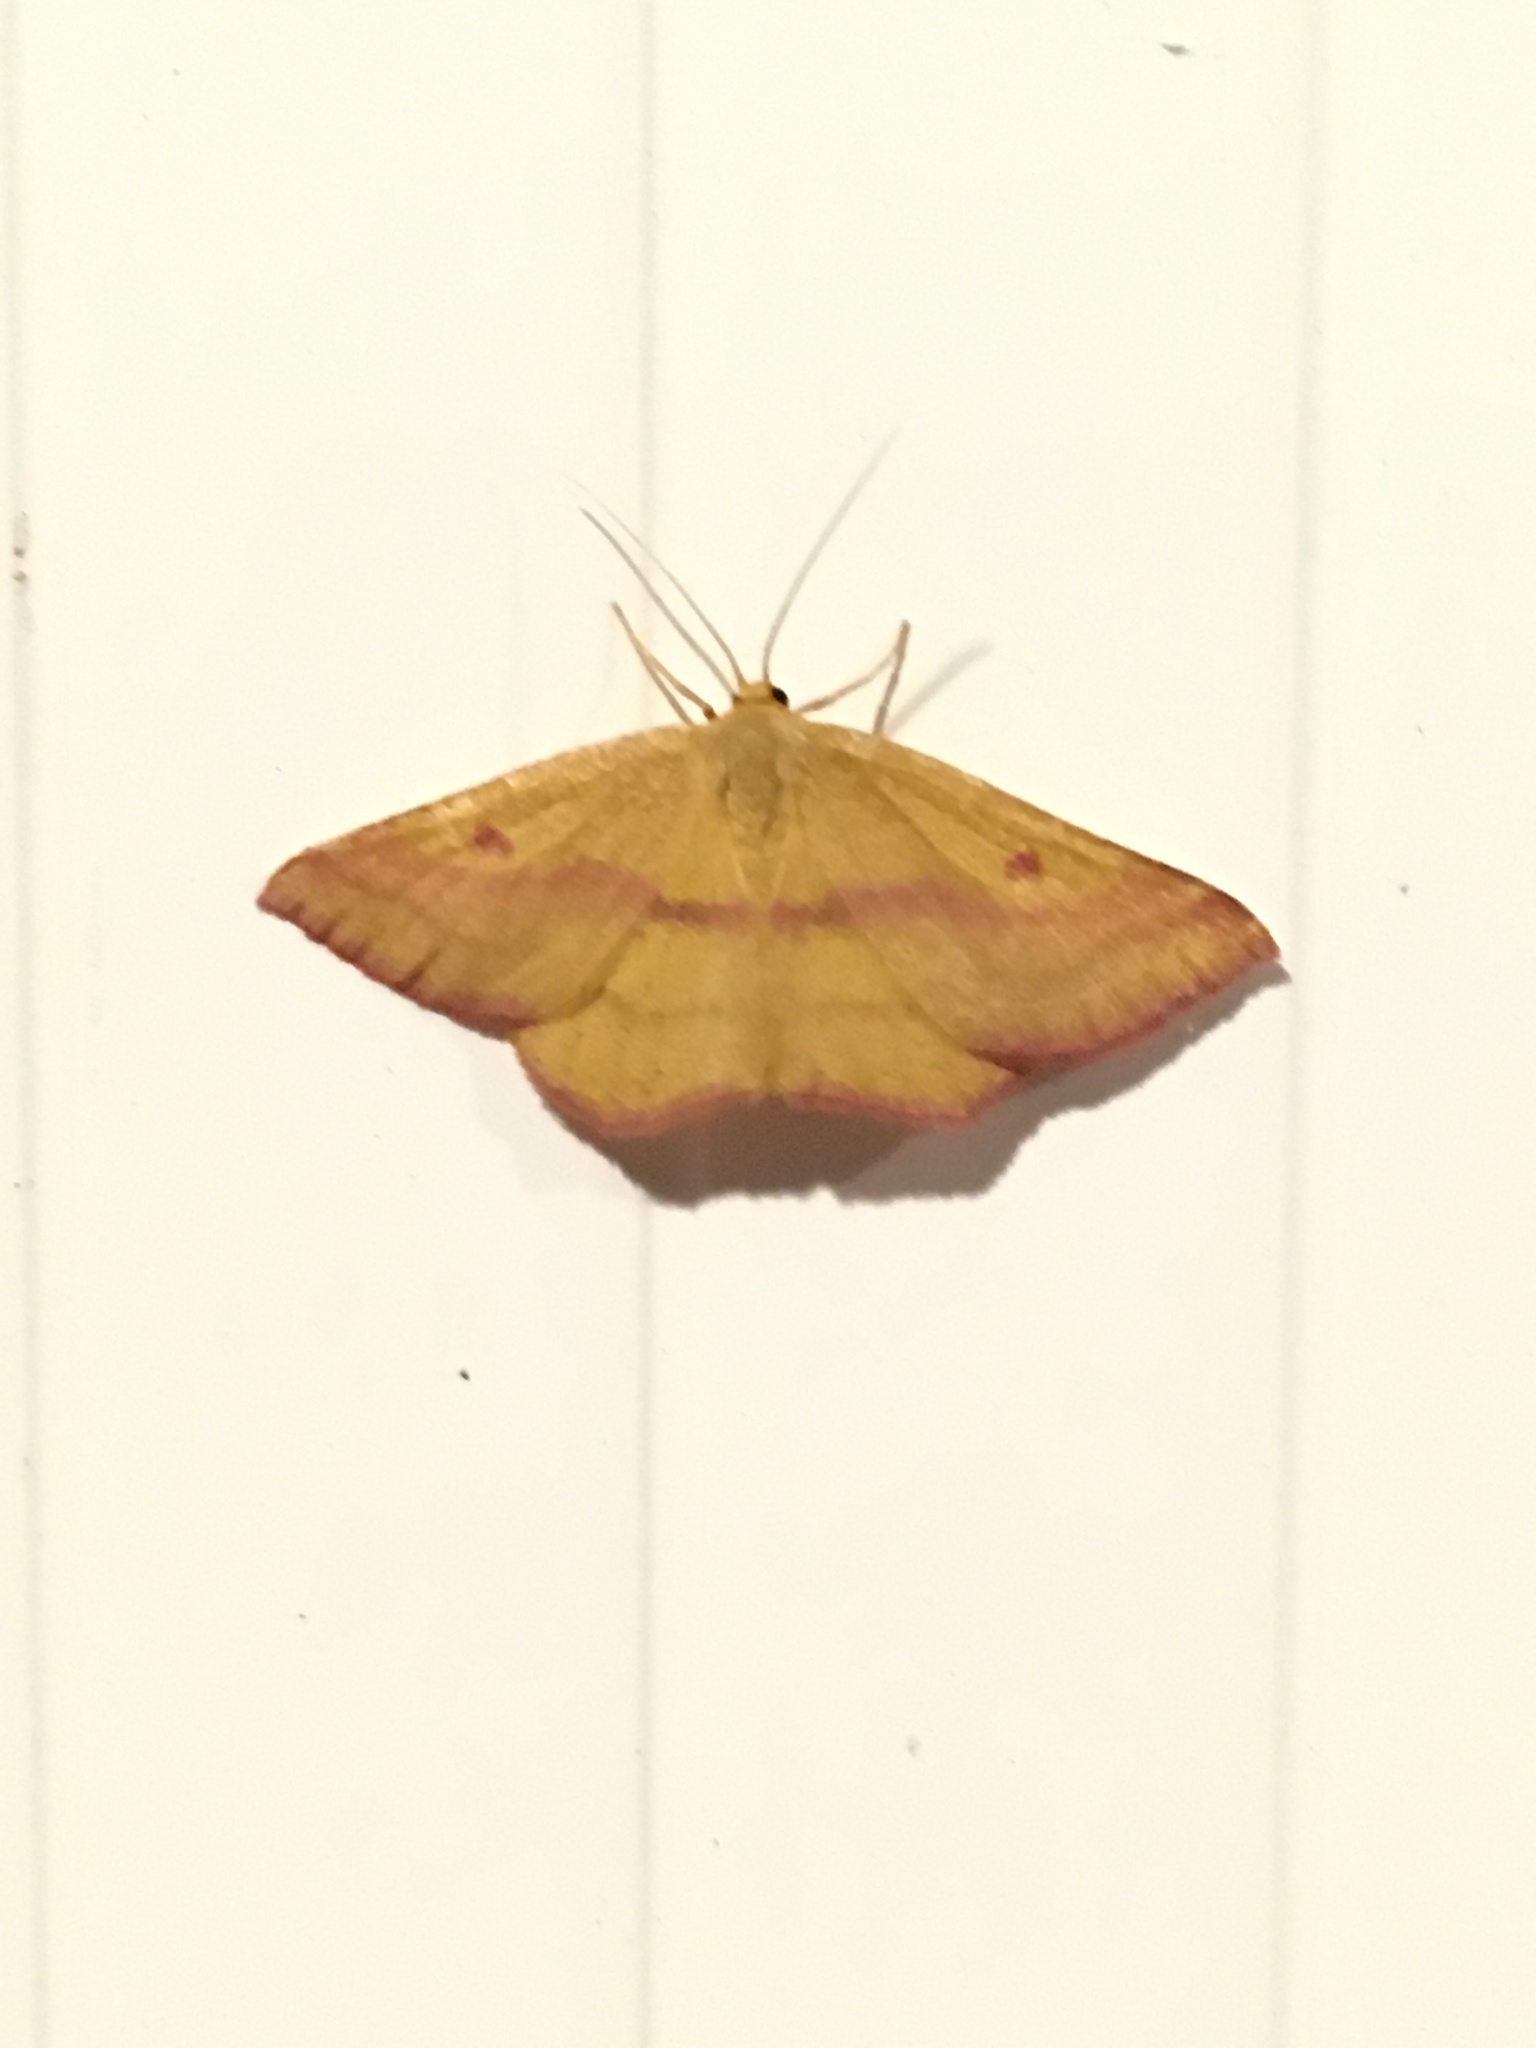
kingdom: Animalia
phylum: Arthropoda
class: Insecta
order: Lepidoptera
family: Geometridae
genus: Haematopis
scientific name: Haematopis grataria
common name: Chickweed geometer
